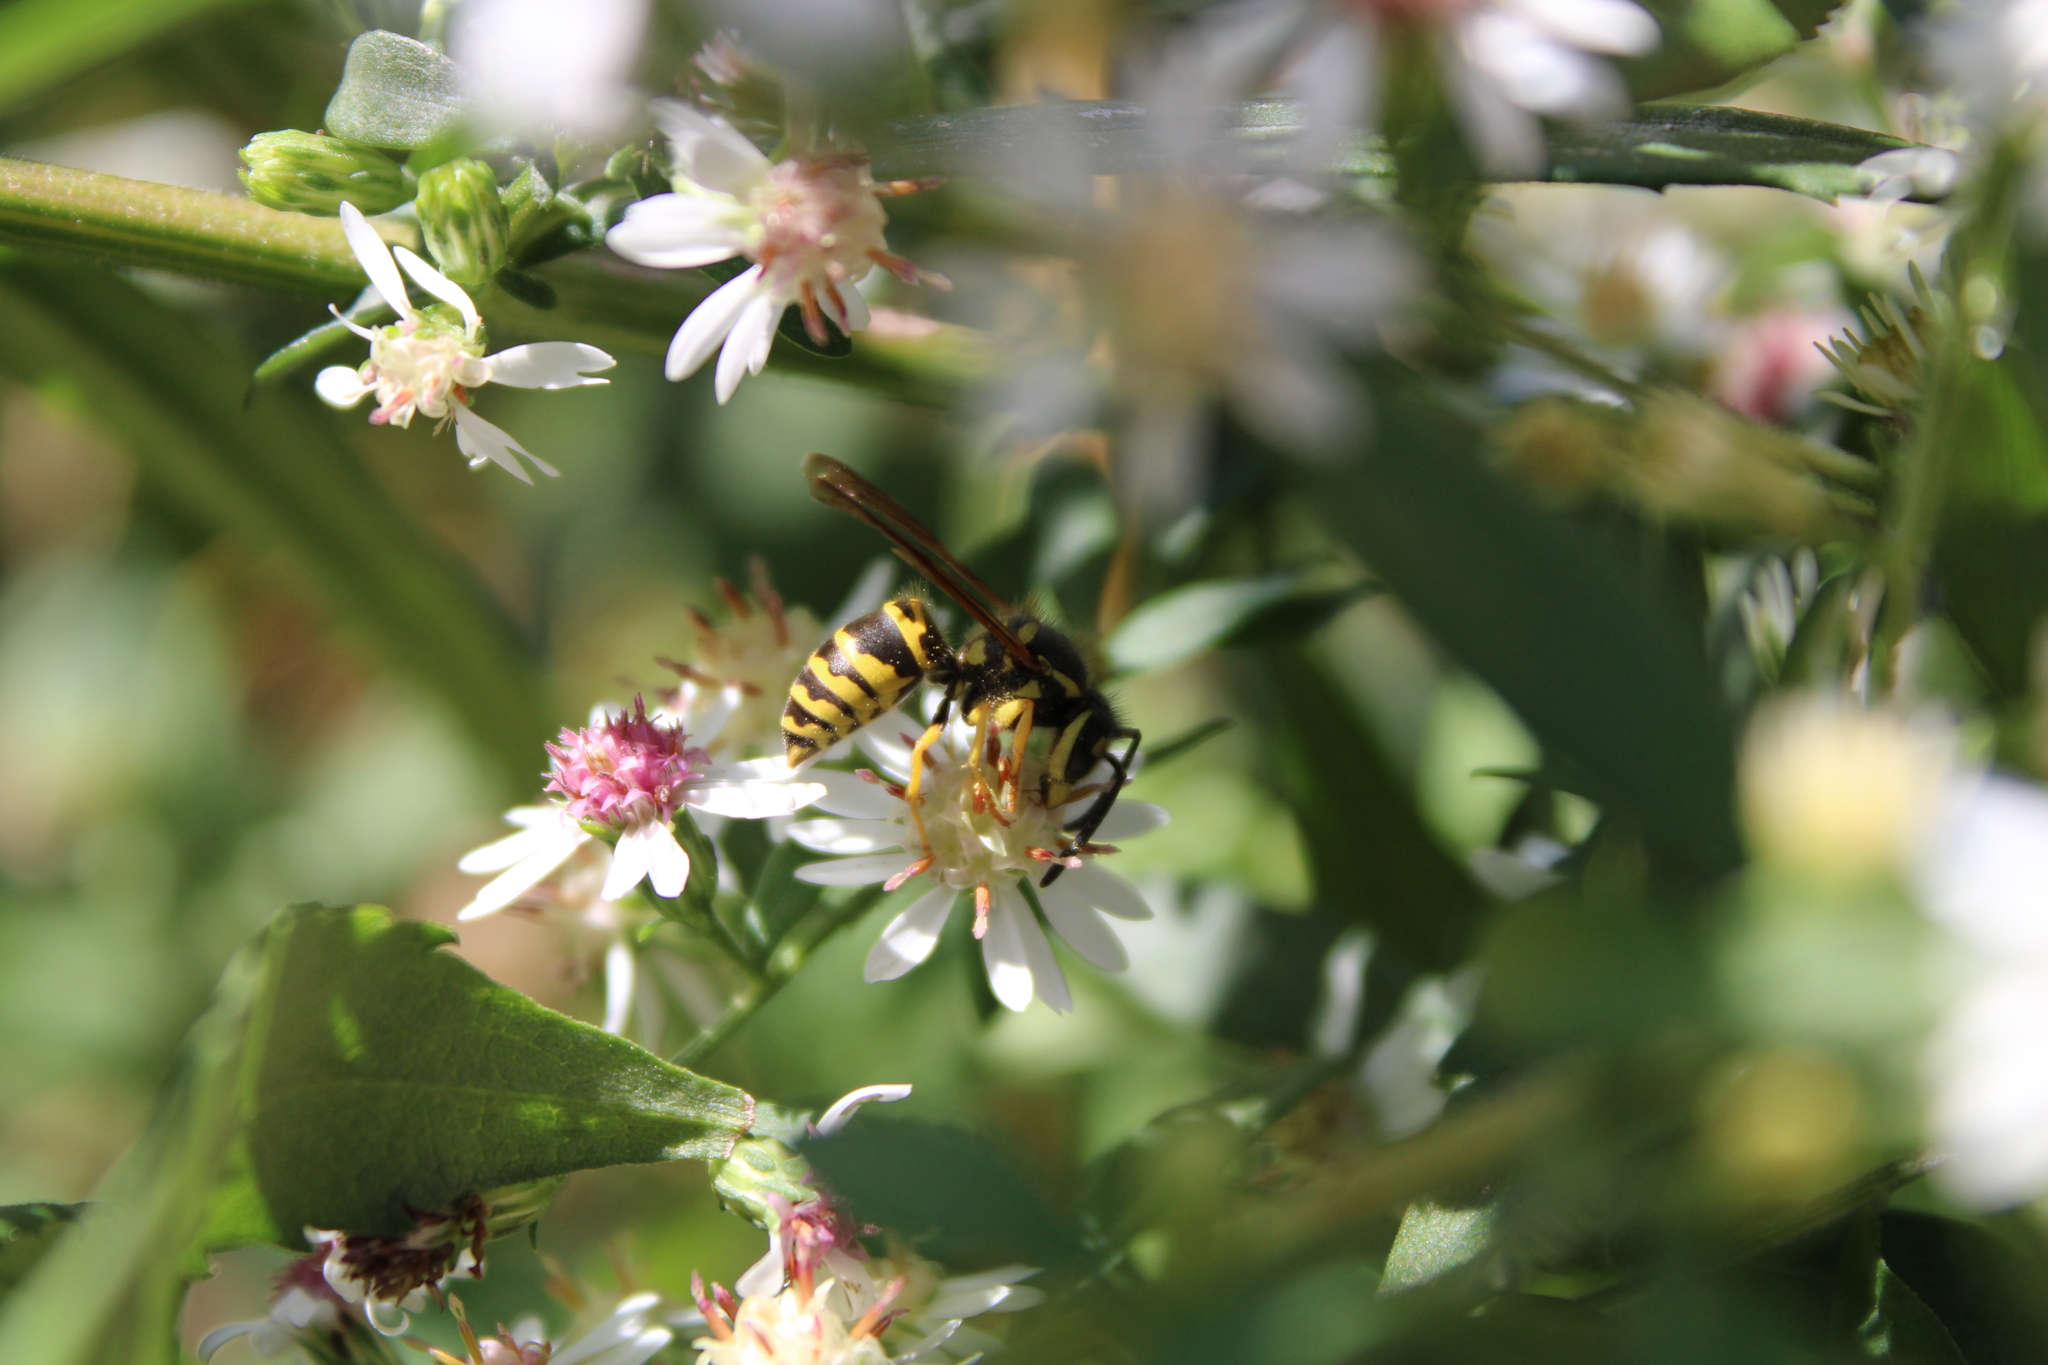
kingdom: Animalia
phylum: Arthropoda
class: Insecta
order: Hymenoptera
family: Vespidae
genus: Vespula
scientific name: Vespula maculifrons
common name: Eastern yellowjacket
